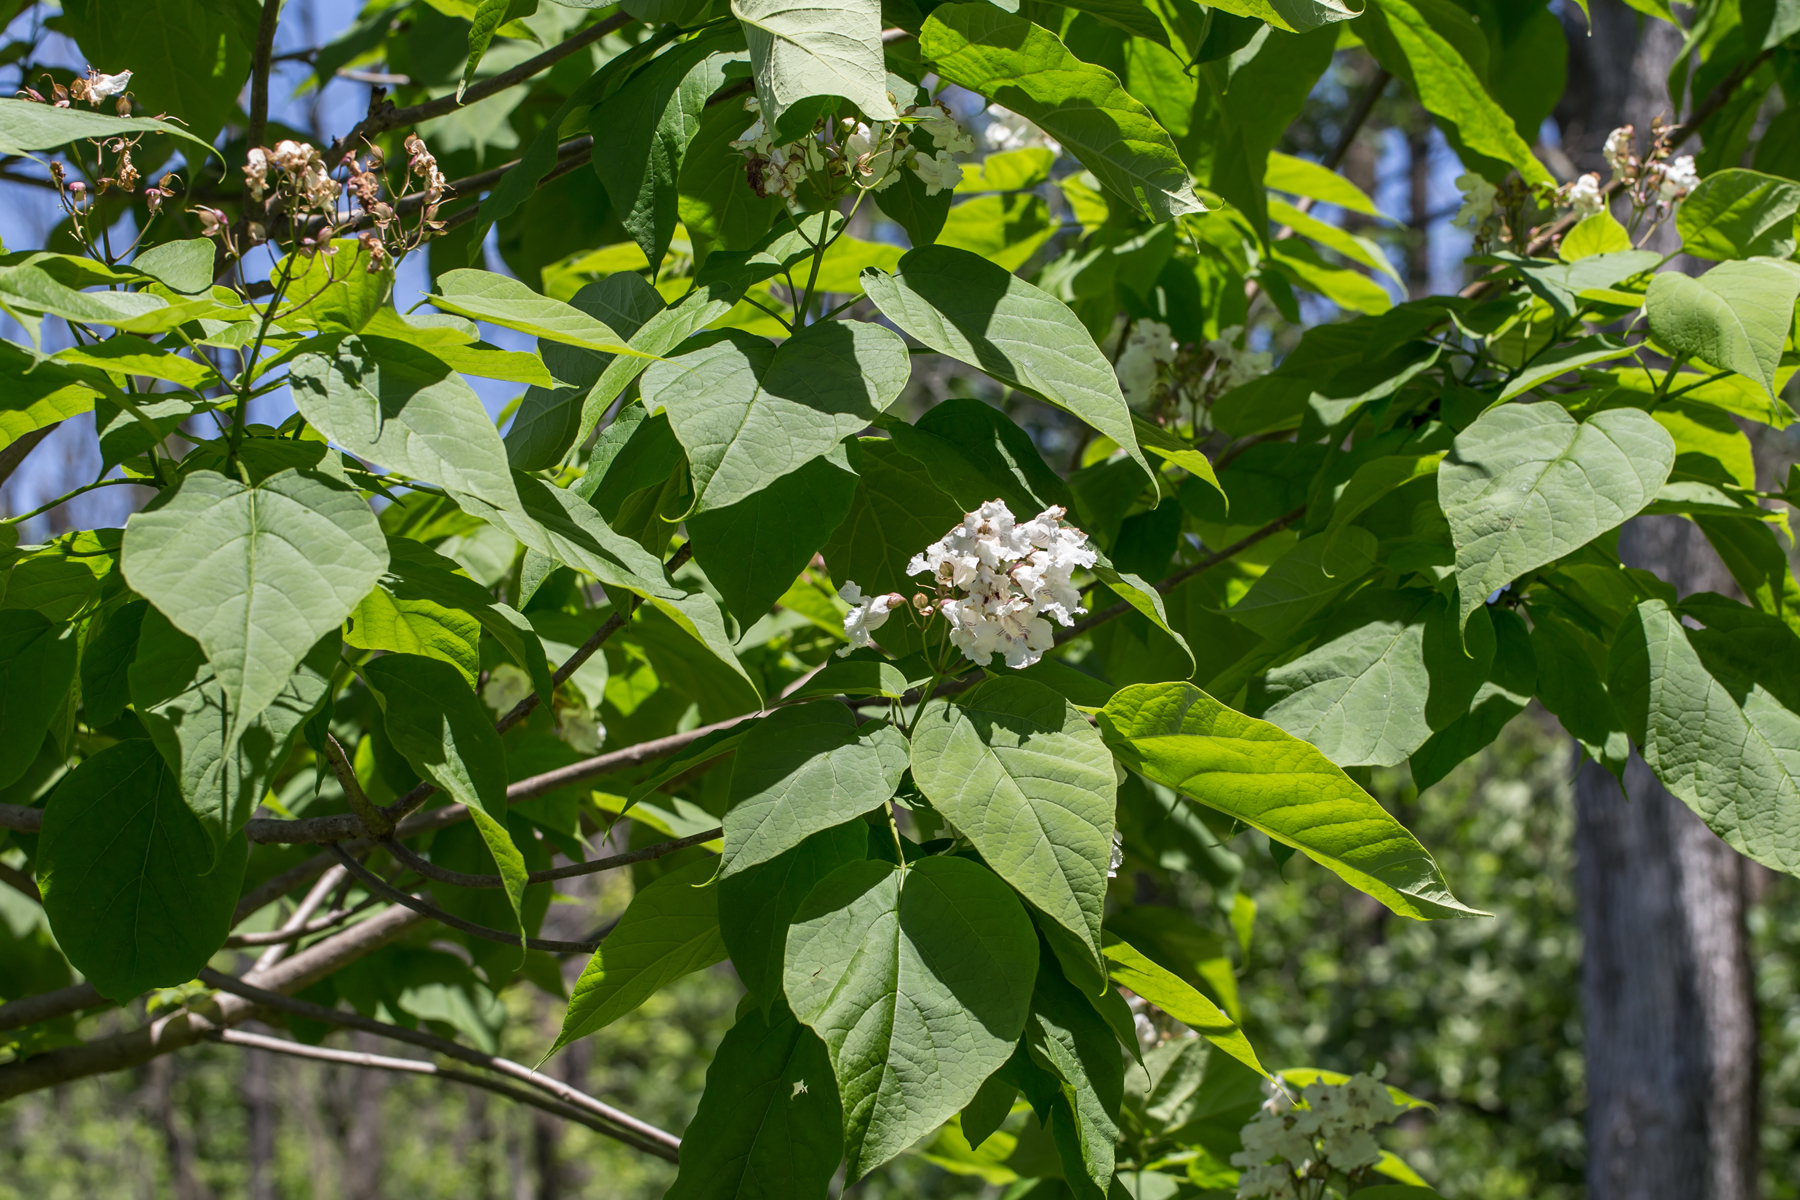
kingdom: Plantae
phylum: Tracheophyta
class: Magnoliopsida
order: Lamiales
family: Bignoniaceae
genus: Catalpa
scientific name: Catalpa speciosa
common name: Northern catalpa
